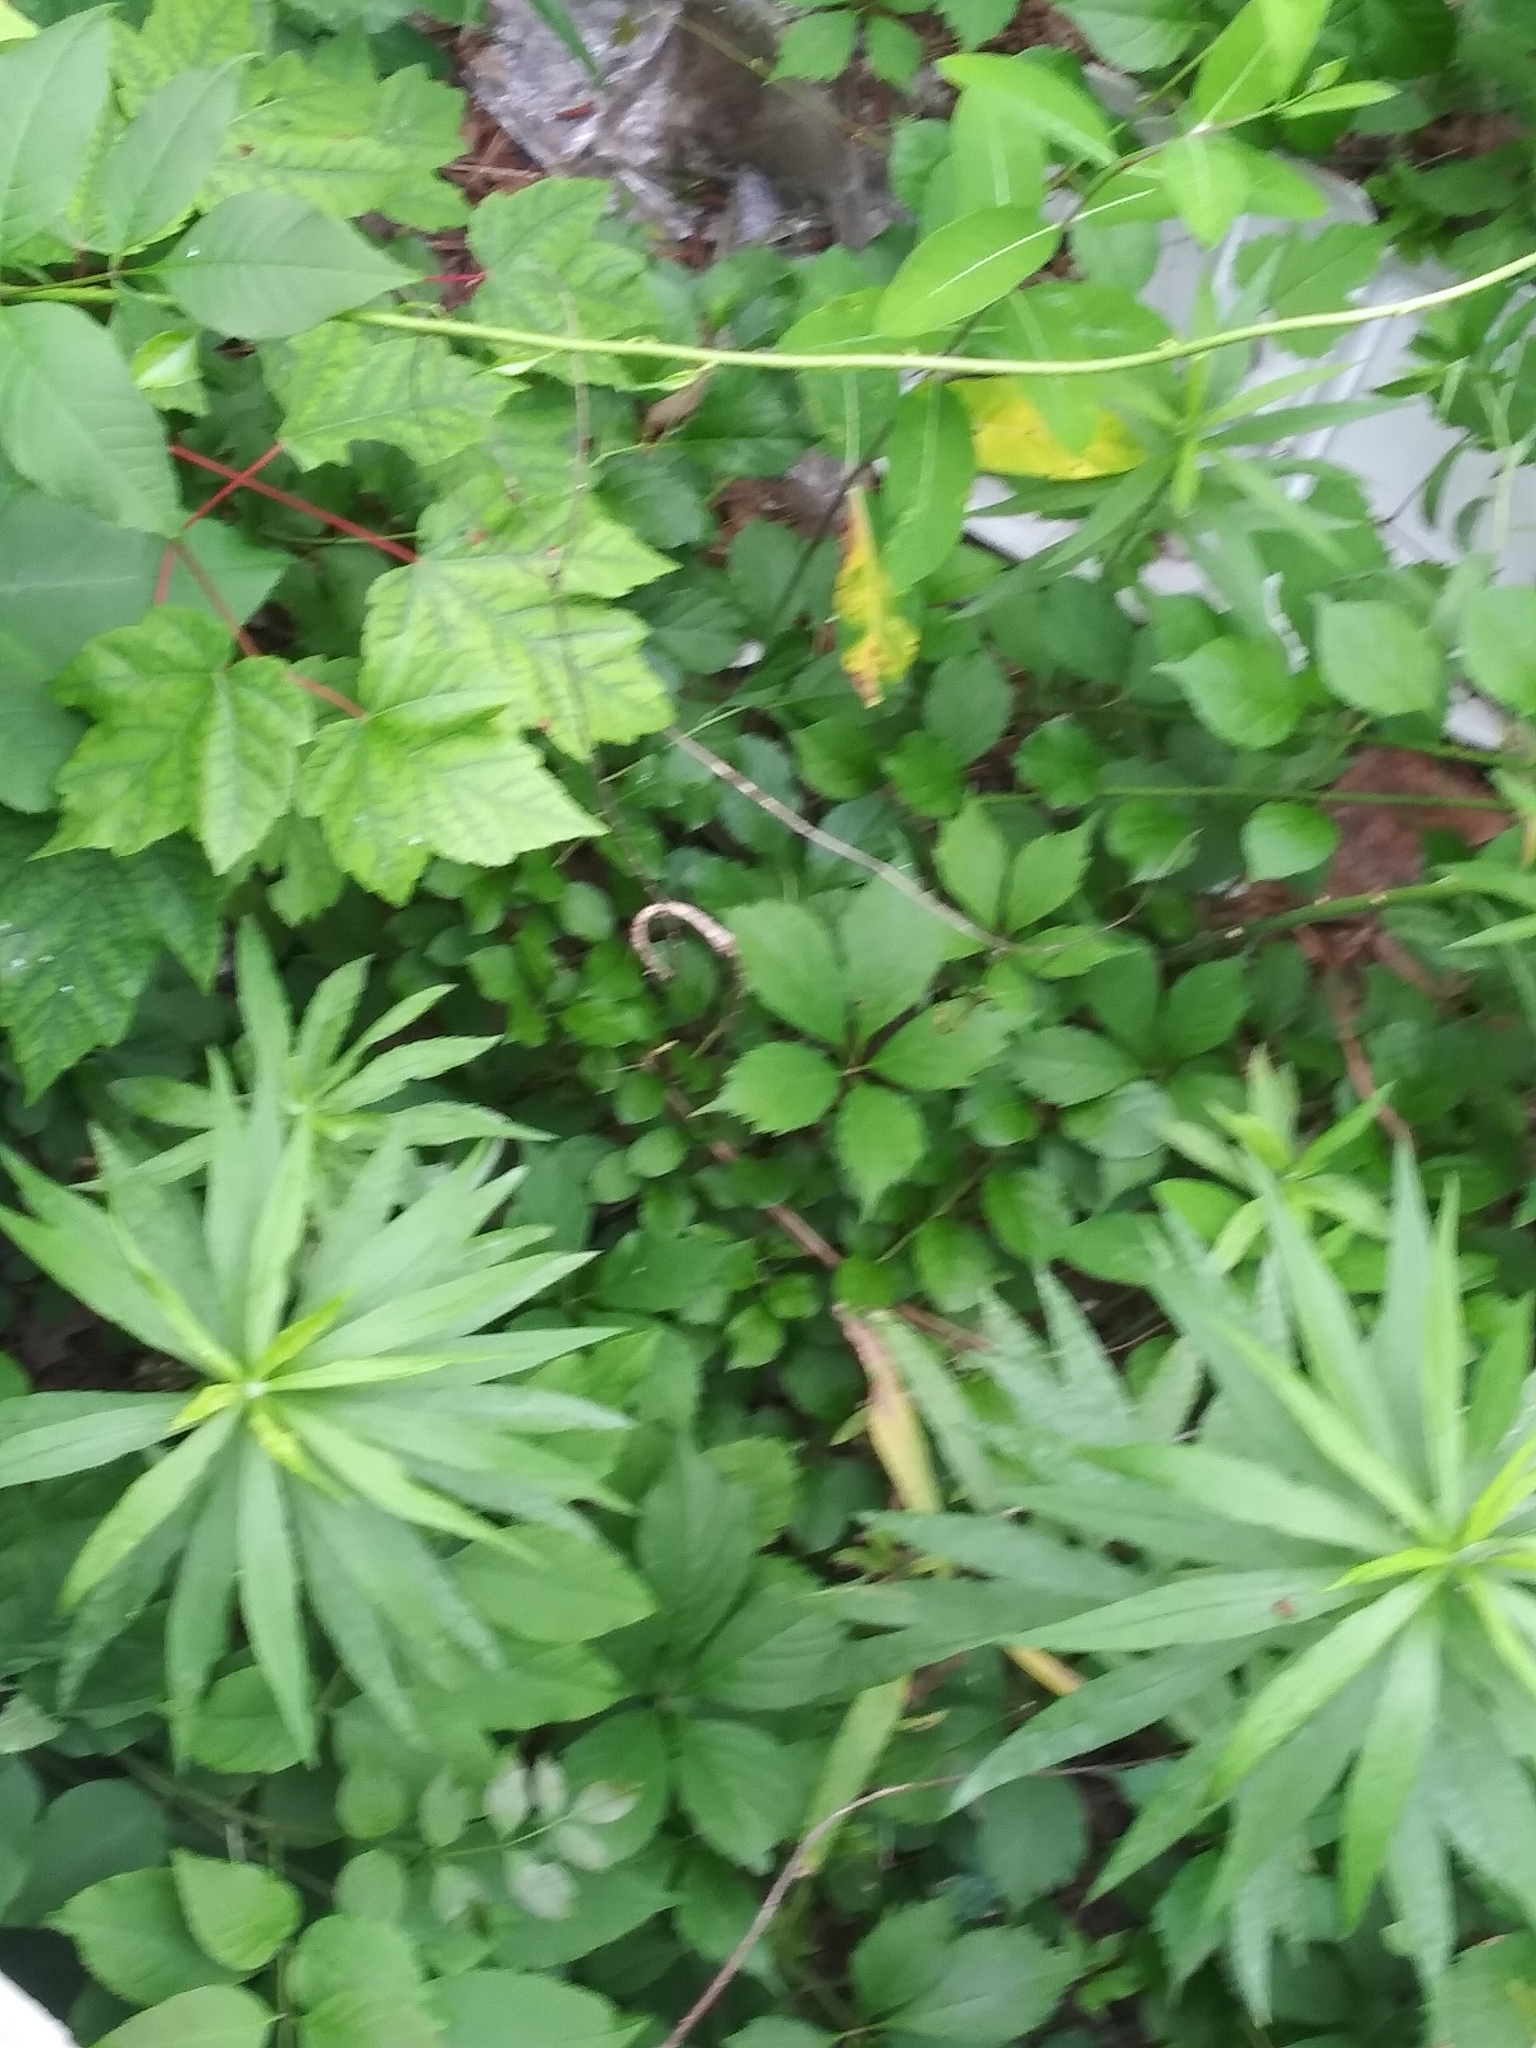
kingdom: Plantae
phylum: Tracheophyta
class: Magnoliopsida
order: Vitales
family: Vitaceae
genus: Parthenocissus
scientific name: Parthenocissus quinquefolia
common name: Virginia-creeper
